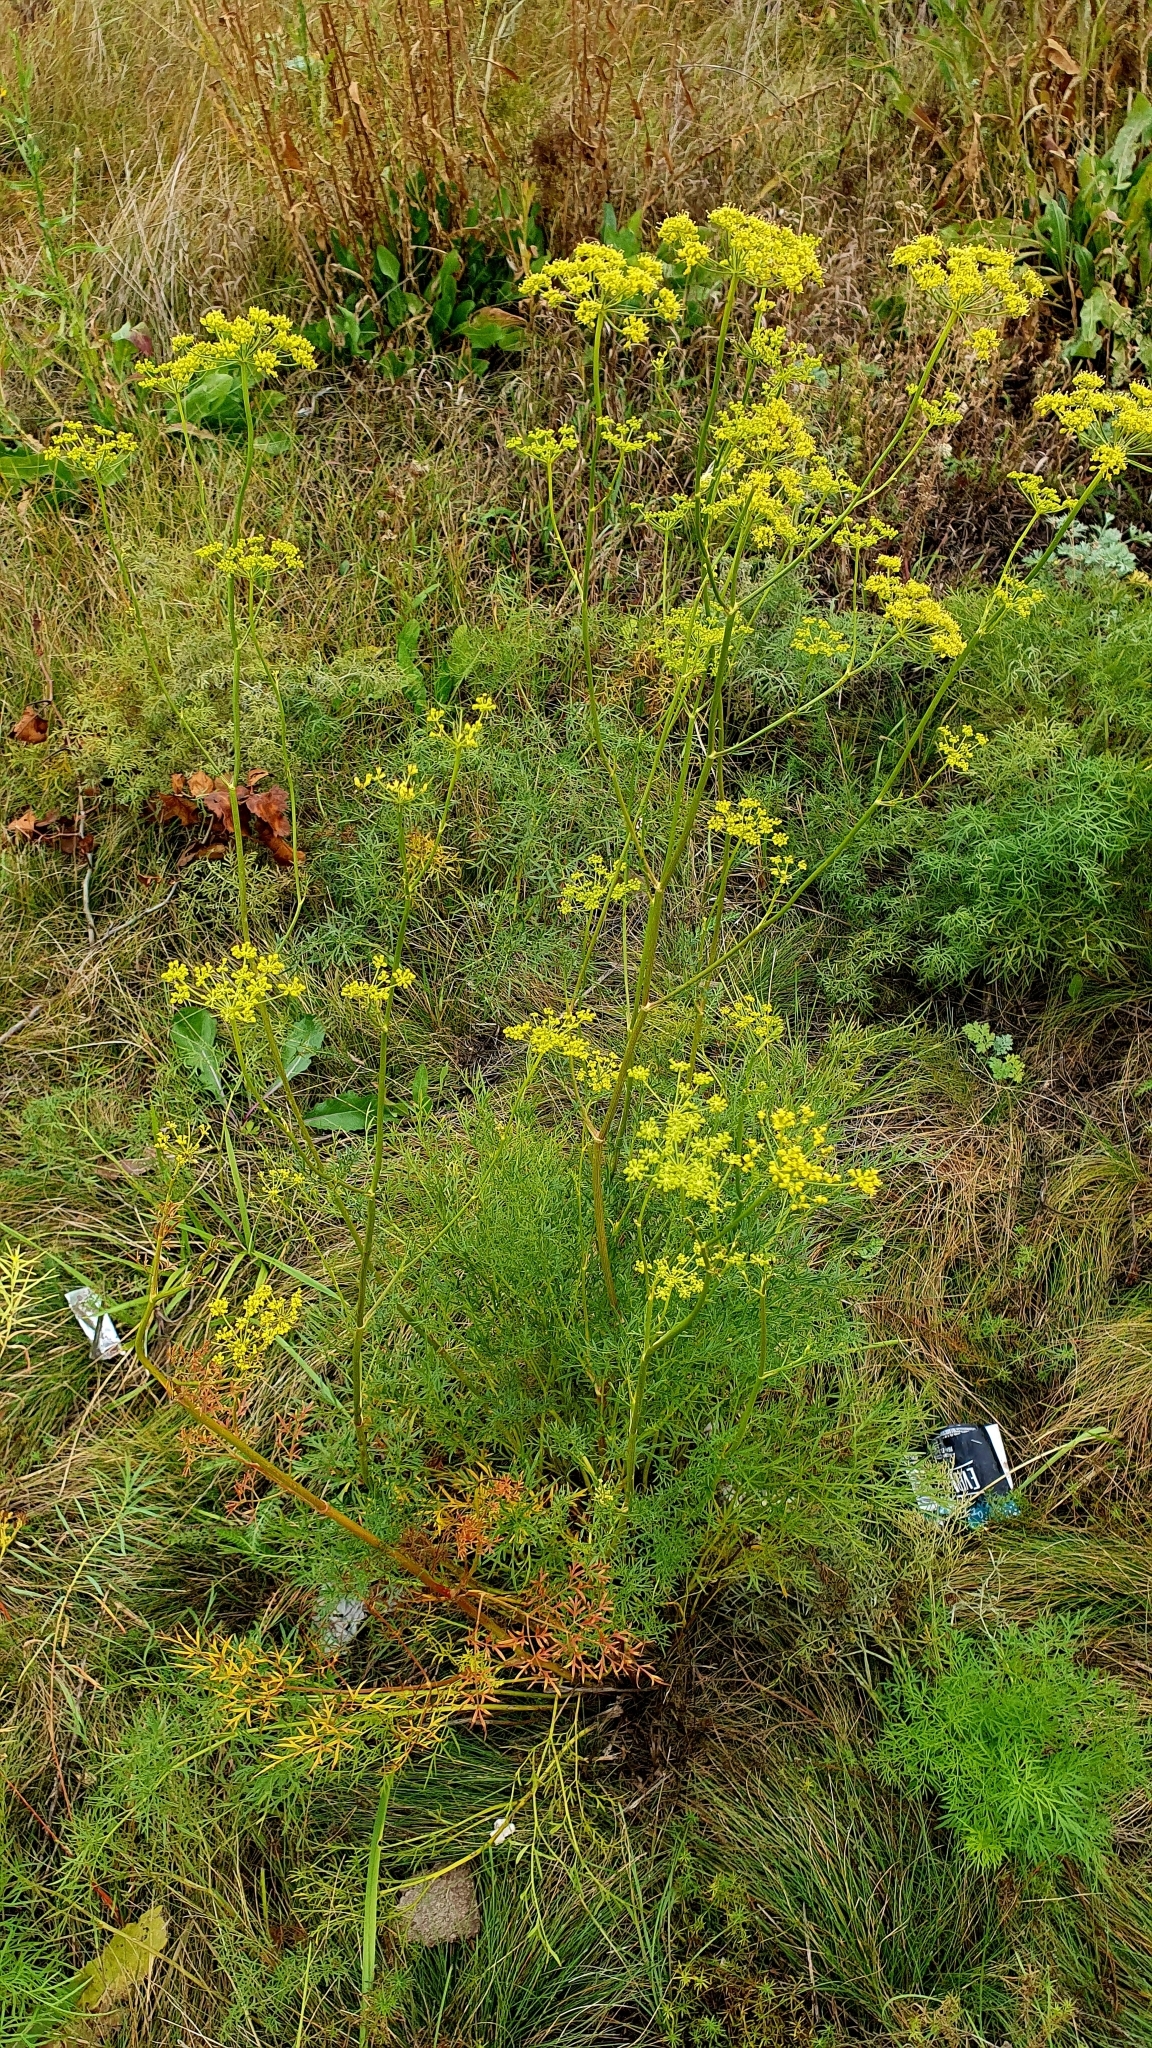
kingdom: Plantae
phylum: Tracheophyta
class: Magnoliopsida
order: Apiales
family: Apiaceae
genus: Silaum
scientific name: Silaum silaus
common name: Pepper-saxifrage
